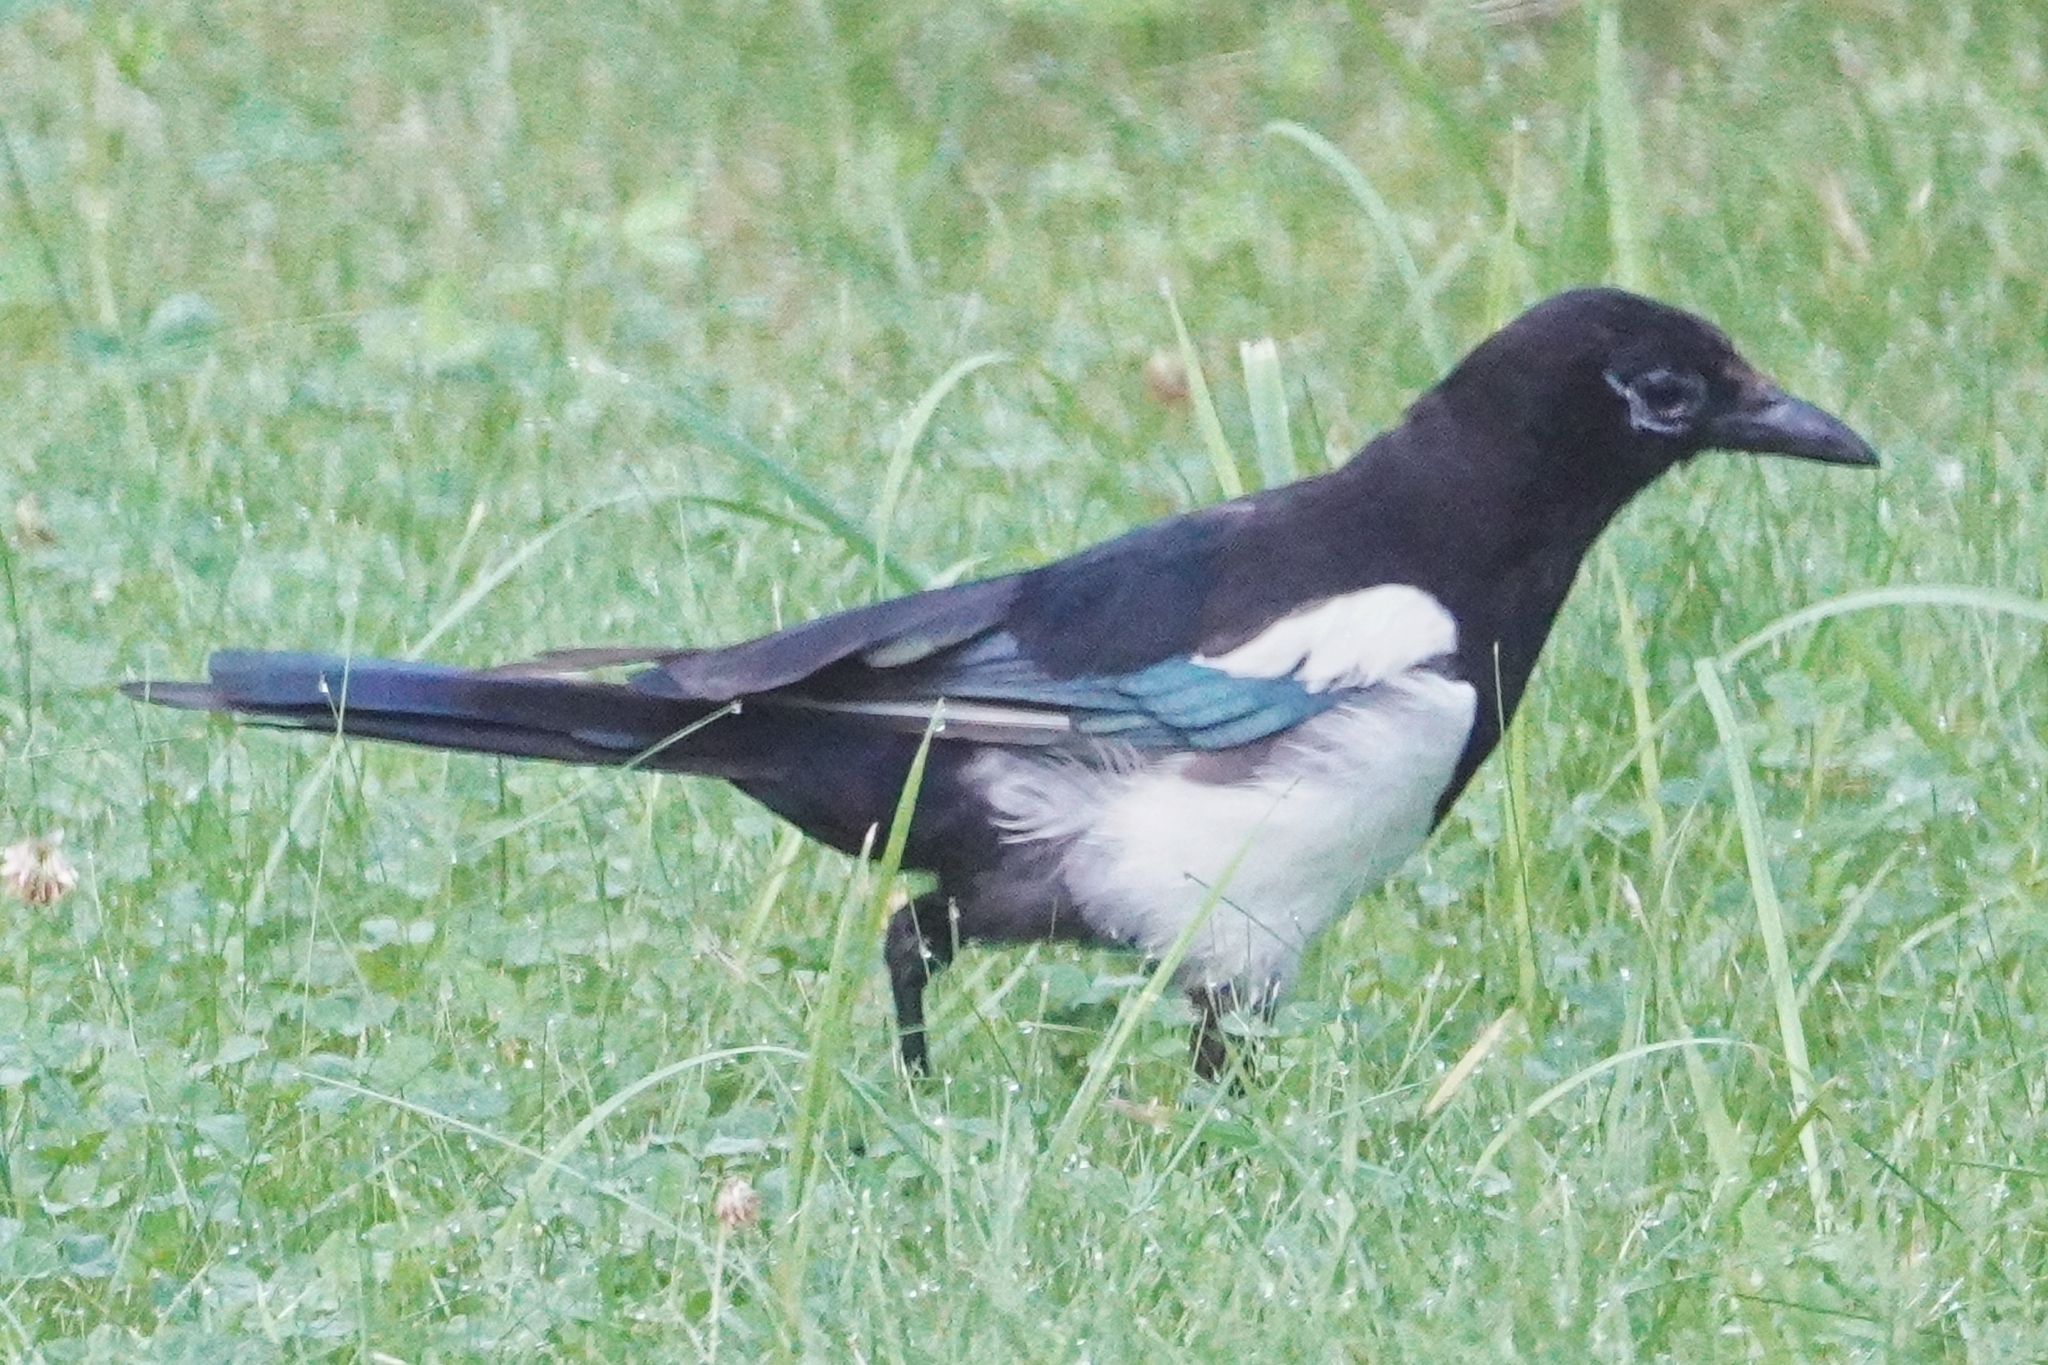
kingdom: Animalia
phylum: Chordata
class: Aves
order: Passeriformes
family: Corvidae
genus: Pica
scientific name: Pica pica
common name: Eurasian magpie
